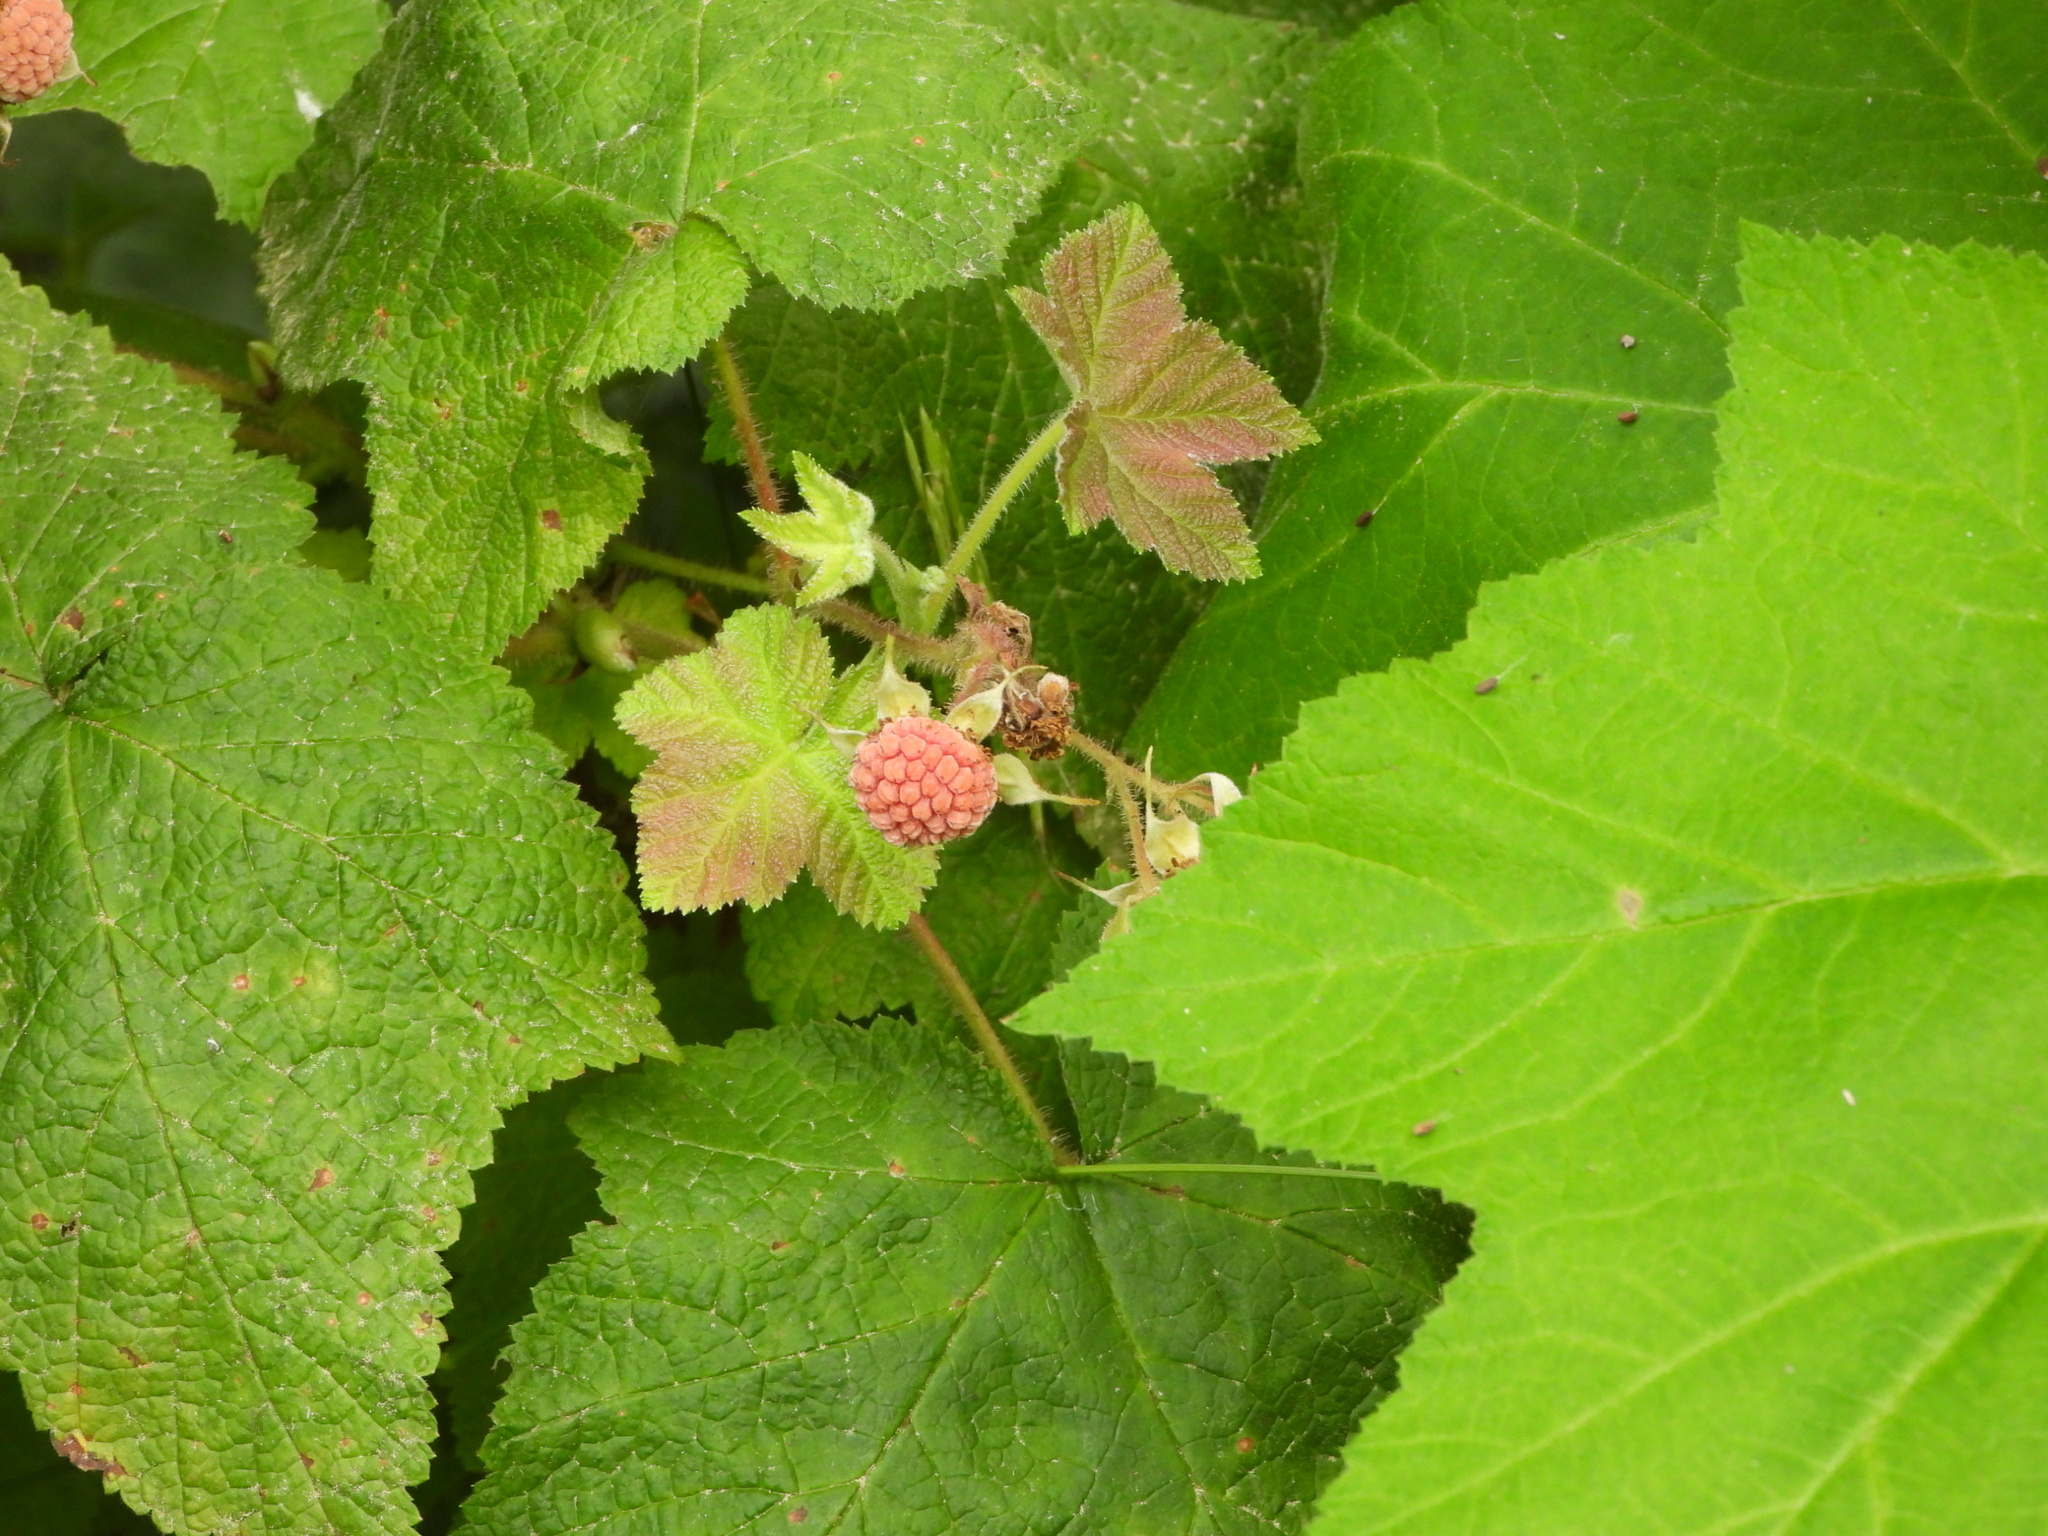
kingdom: Plantae
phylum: Tracheophyta
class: Magnoliopsida
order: Rosales
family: Rosaceae
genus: Rubus
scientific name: Rubus parviflorus
